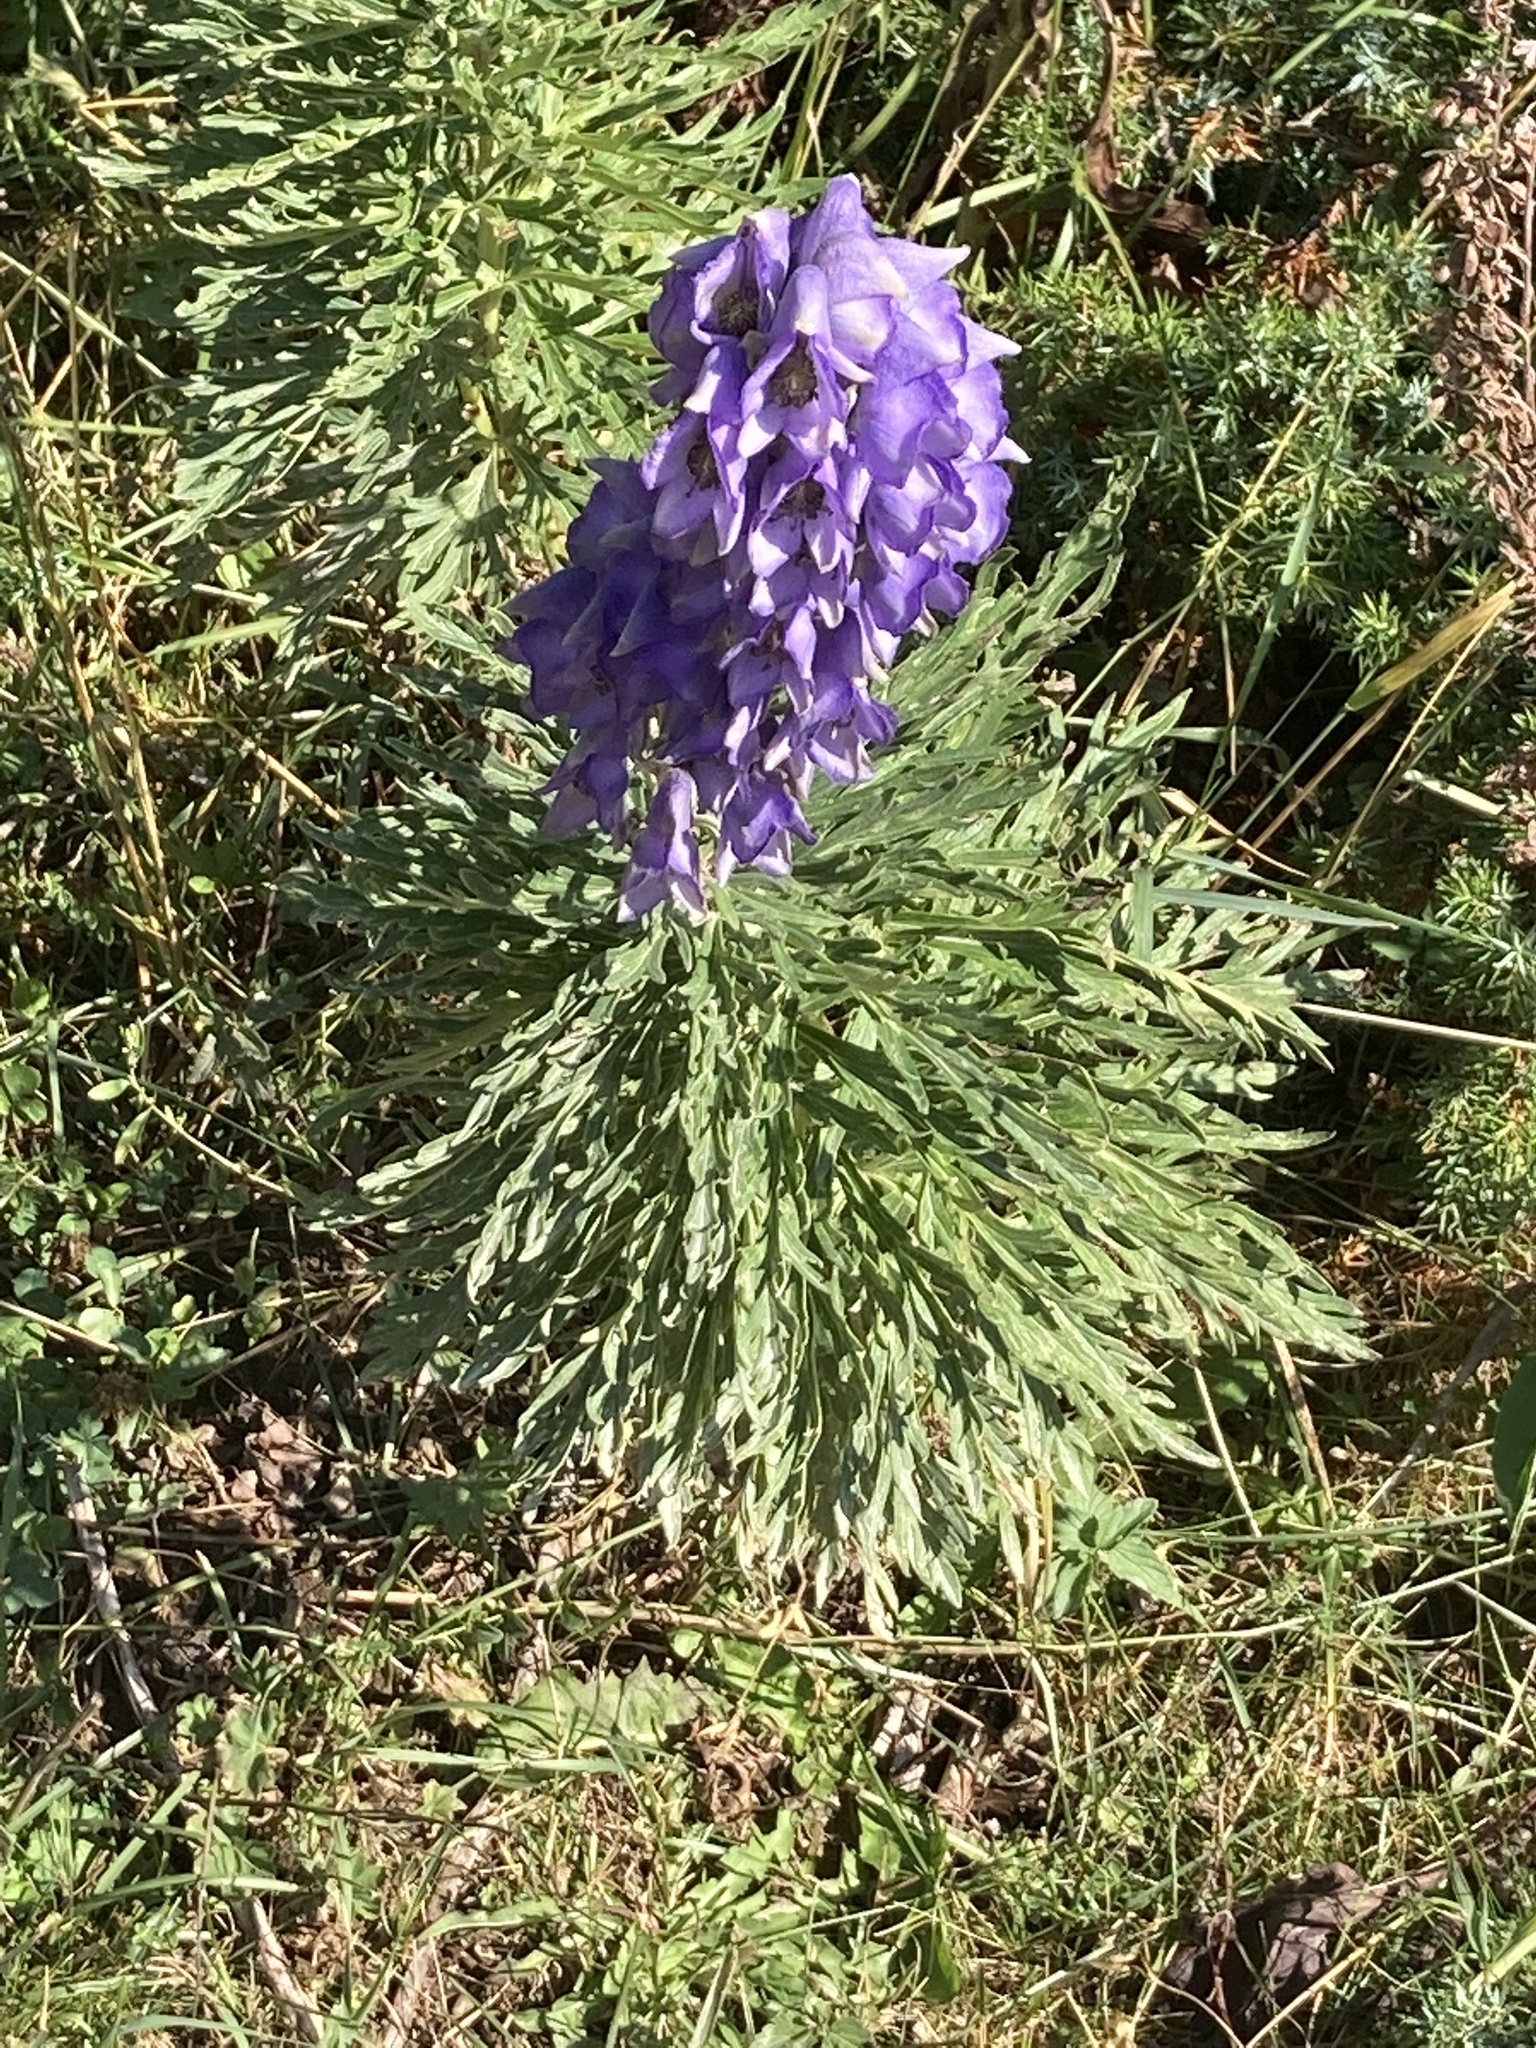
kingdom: Plantae
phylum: Tracheophyta
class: Magnoliopsida
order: Ranunculales
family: Ranunculaceae
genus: Aconitum
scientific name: Aconitum napellus
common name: Garden monkshood
